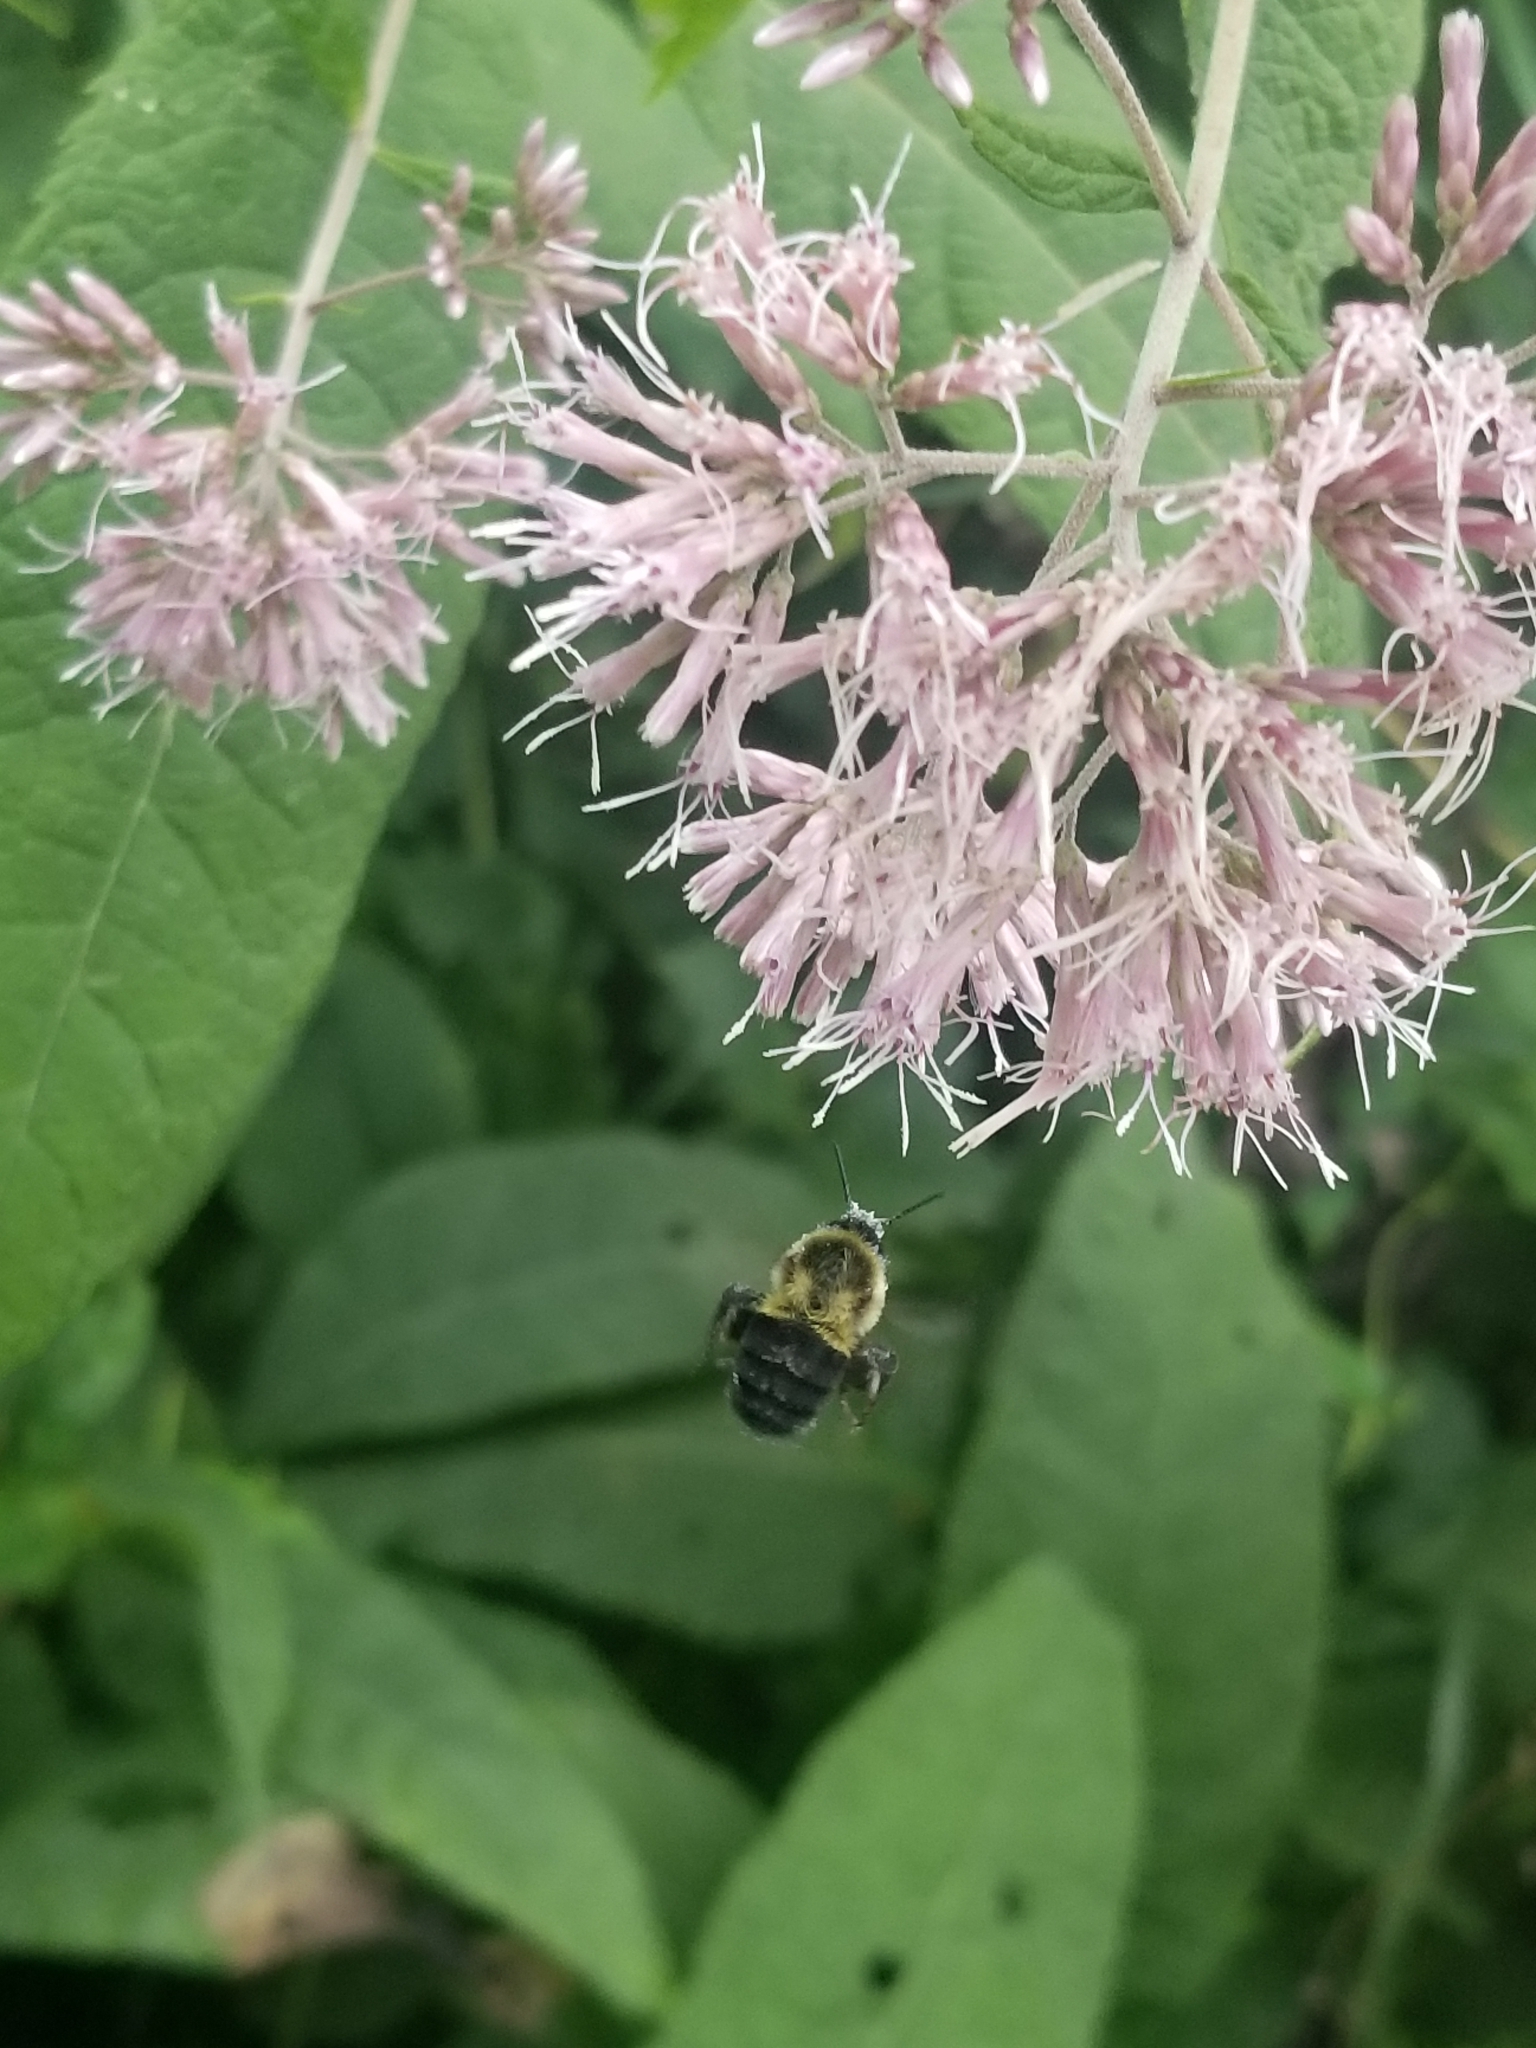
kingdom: Animalia
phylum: Arthropoda
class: Insecta
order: Hymenoptera
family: Apidae
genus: Bombus
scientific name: Bombus impatiens
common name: Common eastern bumble bee
